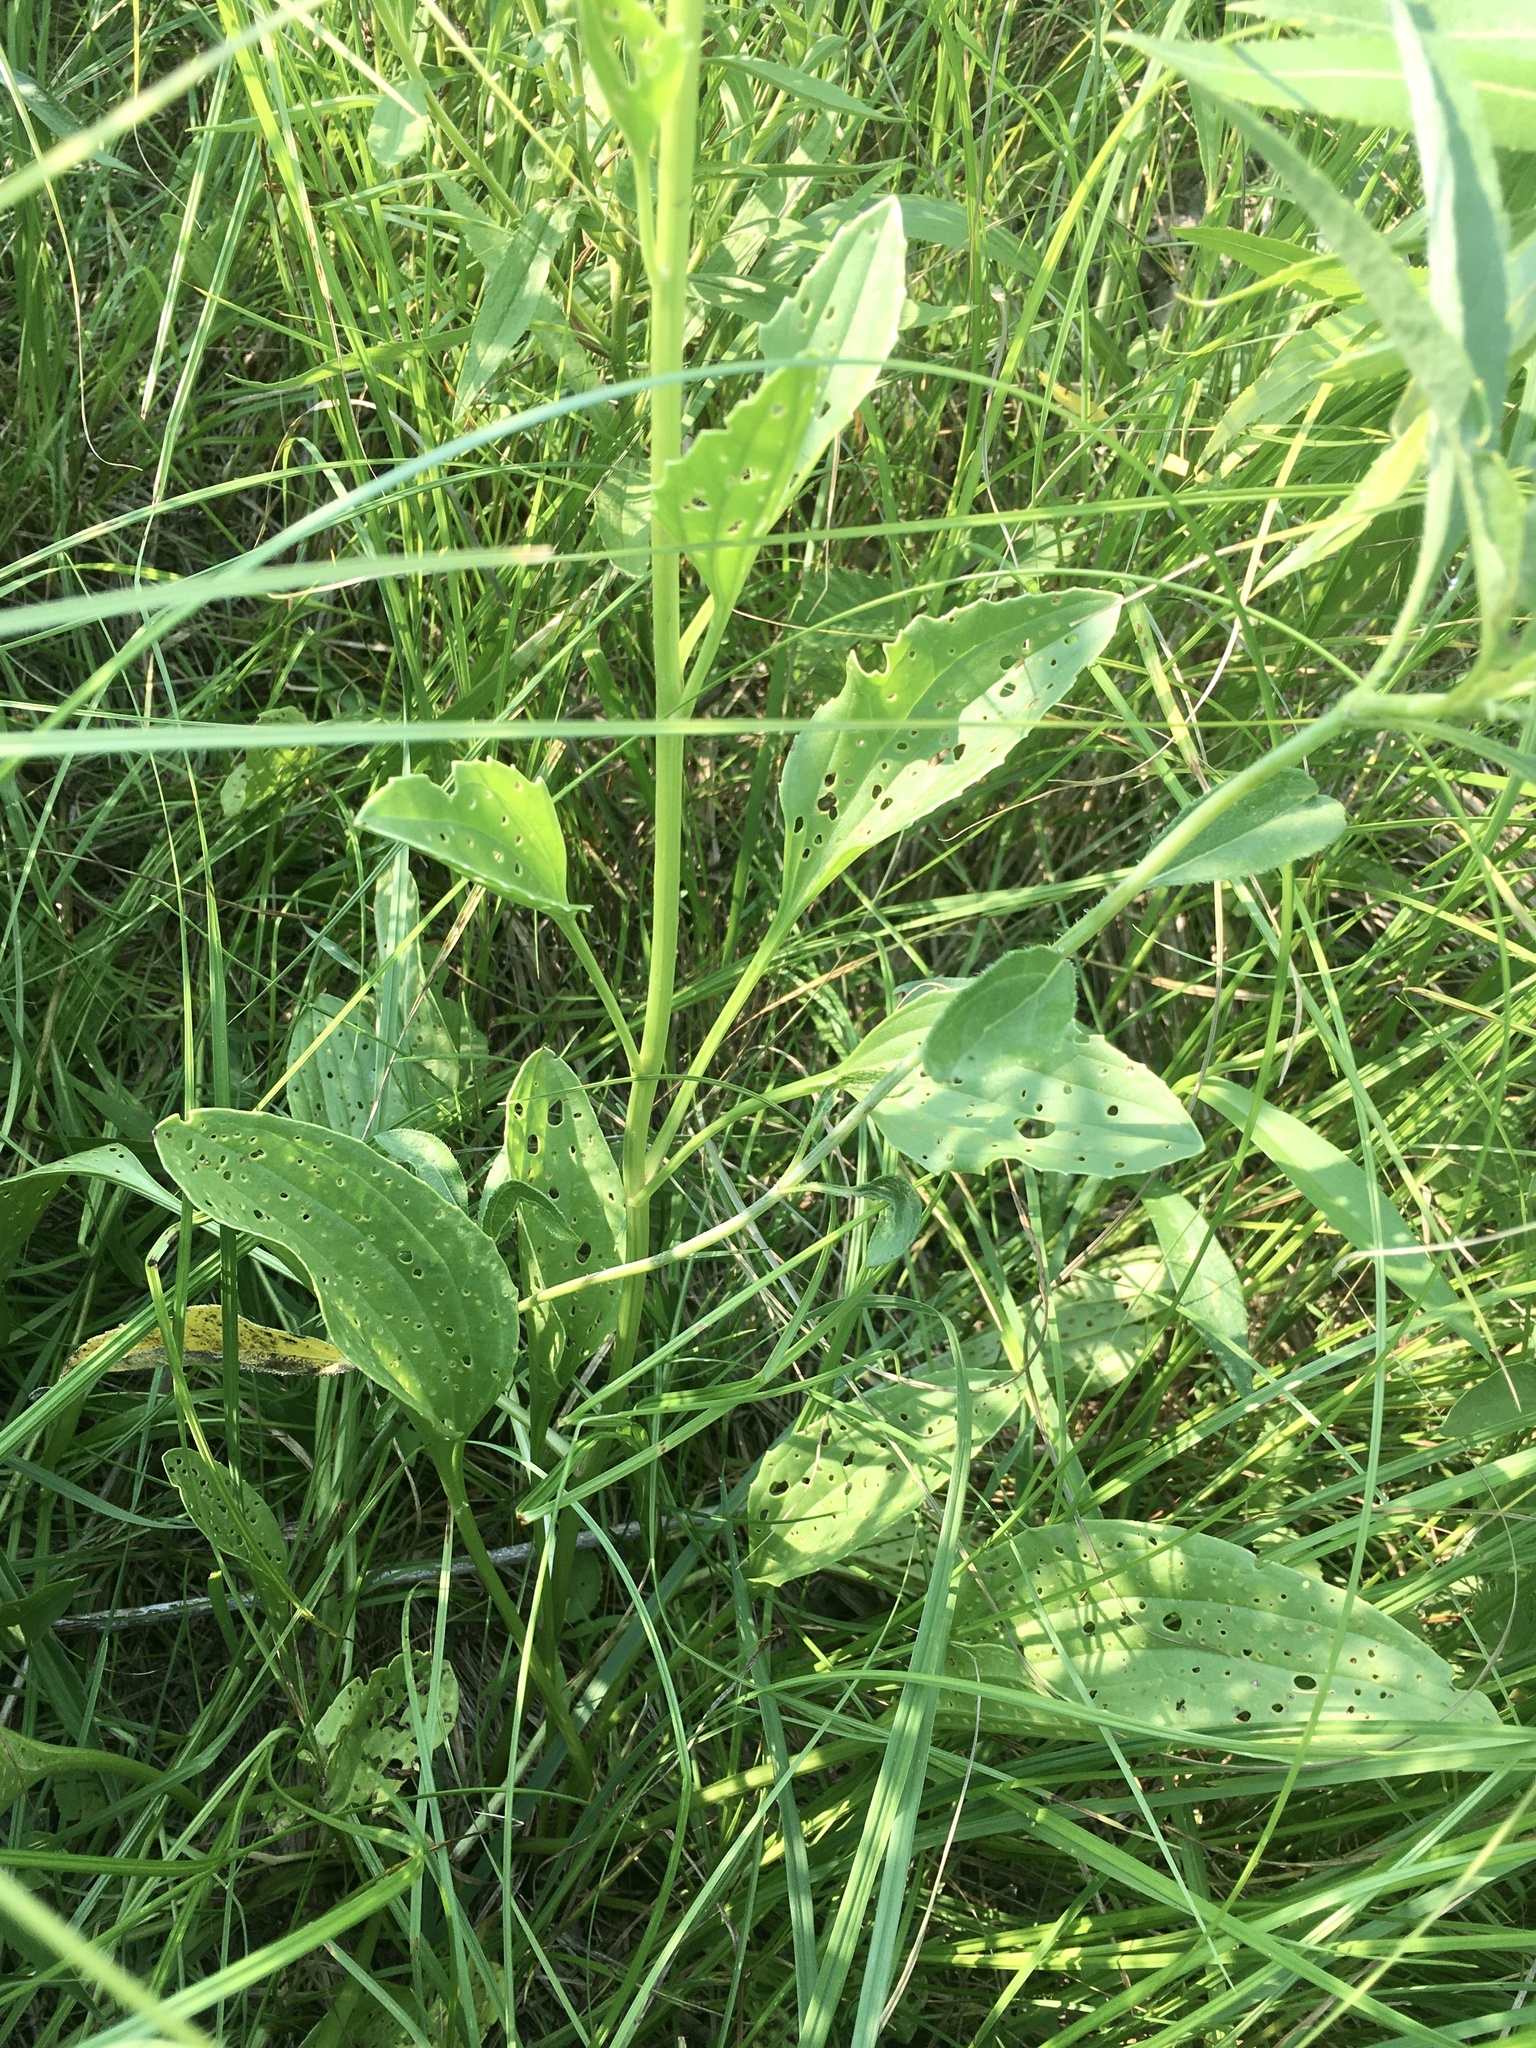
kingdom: Plantae
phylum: Tracheophyta
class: Magnoliopsida
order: Asterales
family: Asteraceae
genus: Arnoglossum
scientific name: Arnoglossum plantagineum
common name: Groove-stemmed indian-plantain
